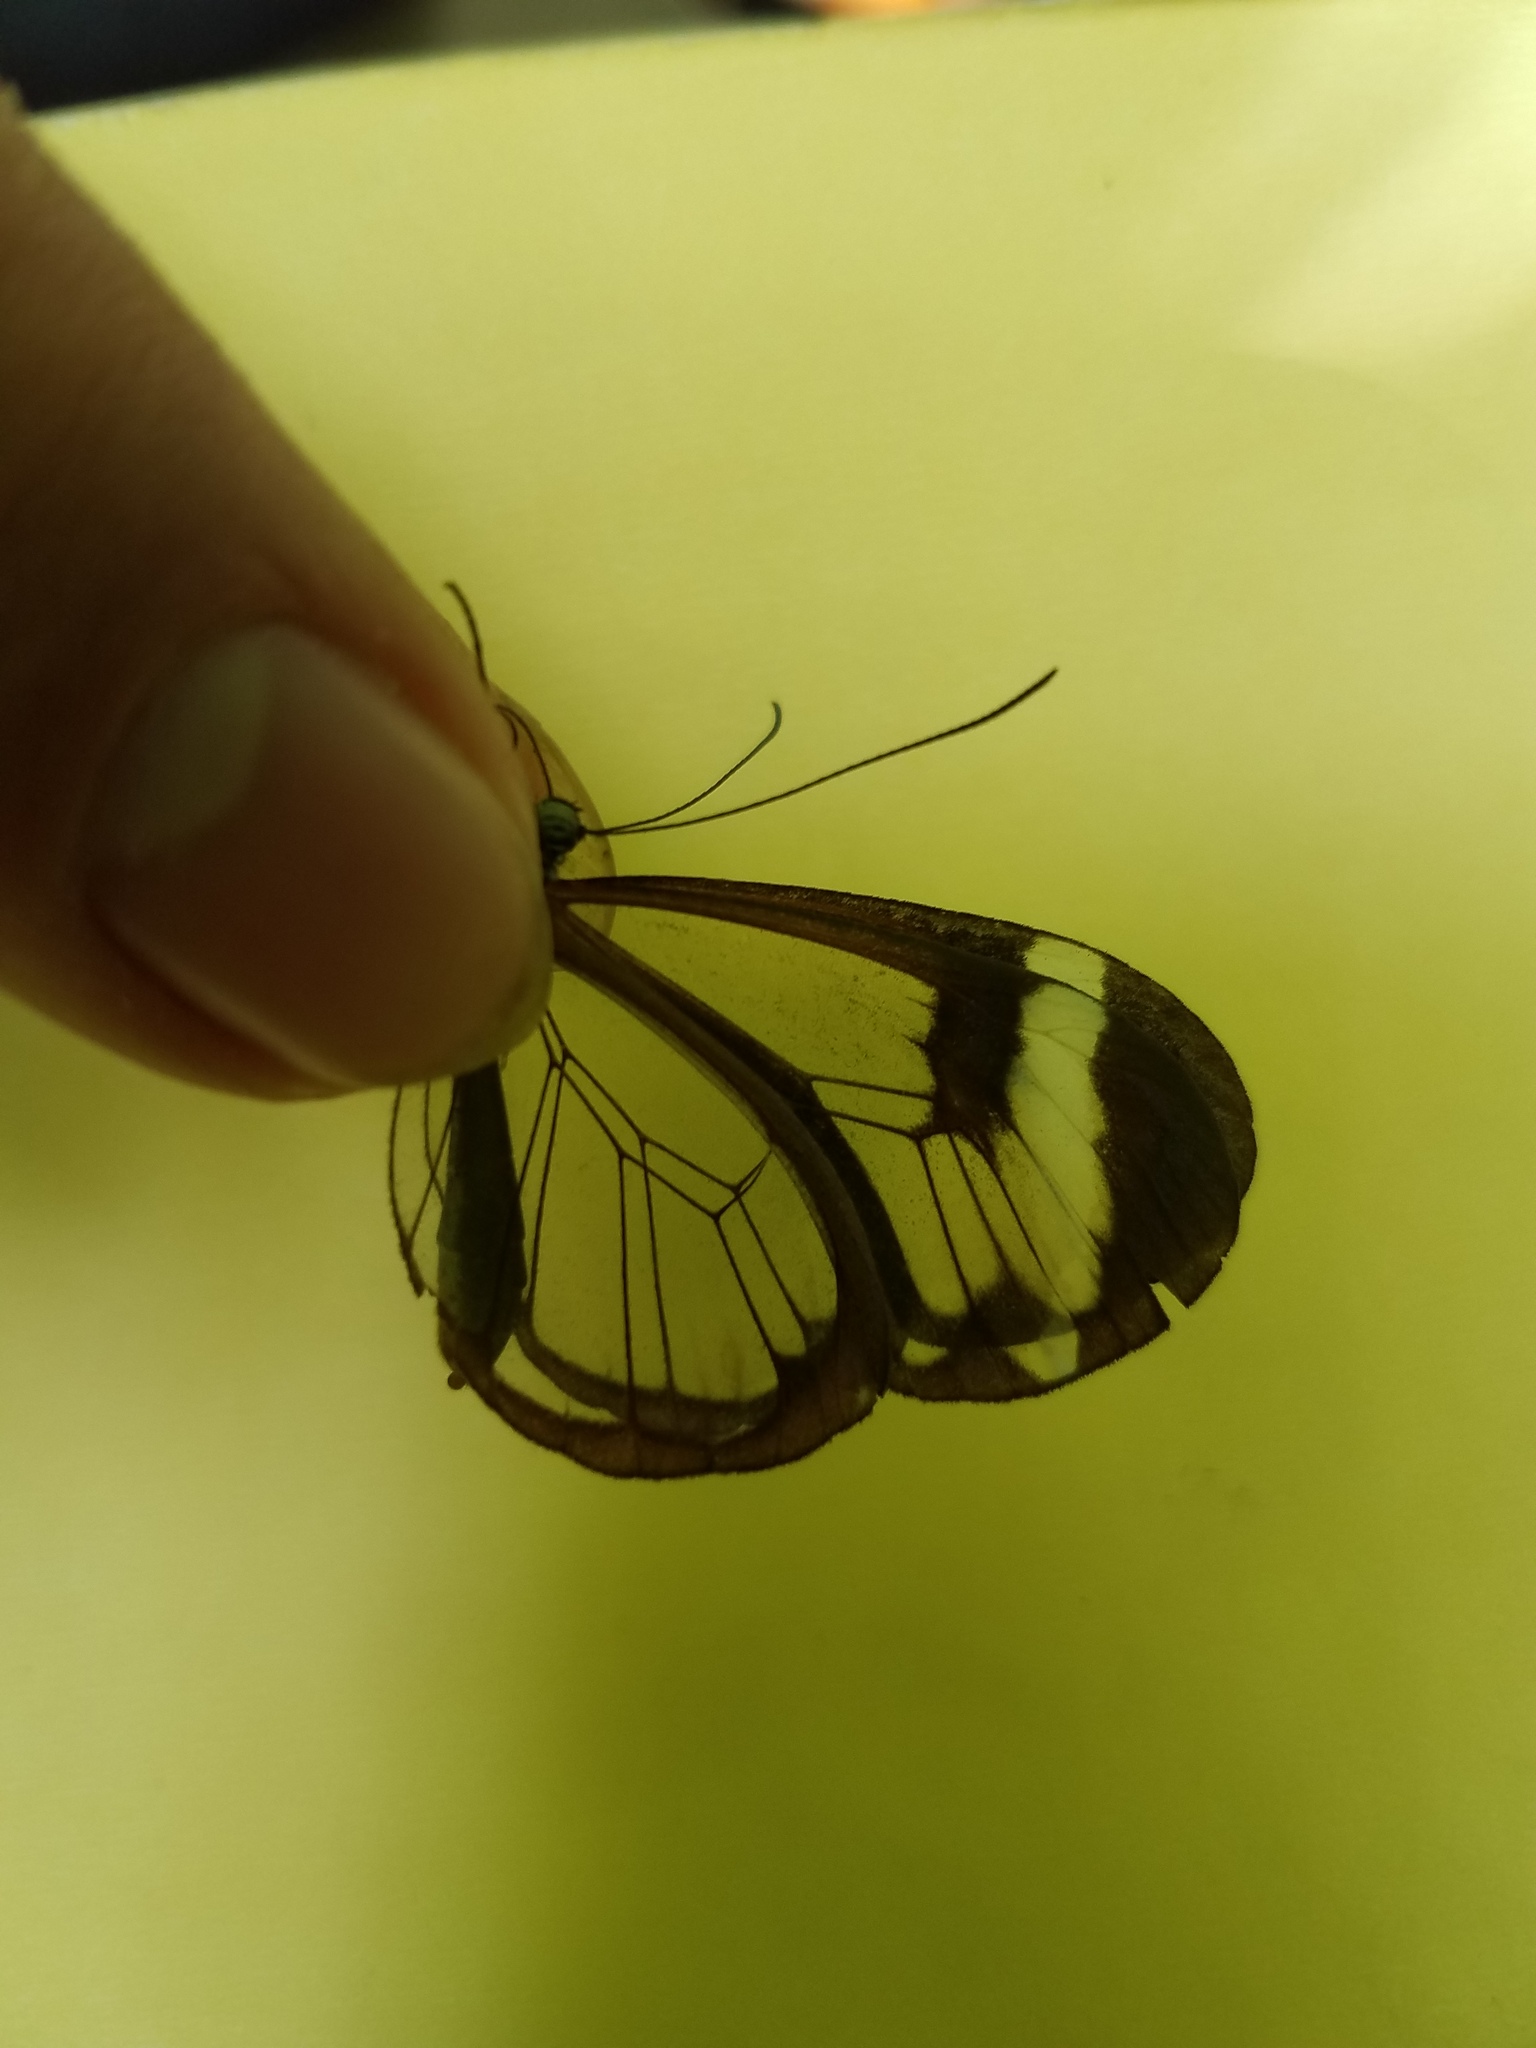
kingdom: Animalia
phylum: Arthropoda
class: Insecta
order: Lepidoptera
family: Nymphalidae
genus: Greta
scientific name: Greta morgane
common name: Thick-tipped greta
